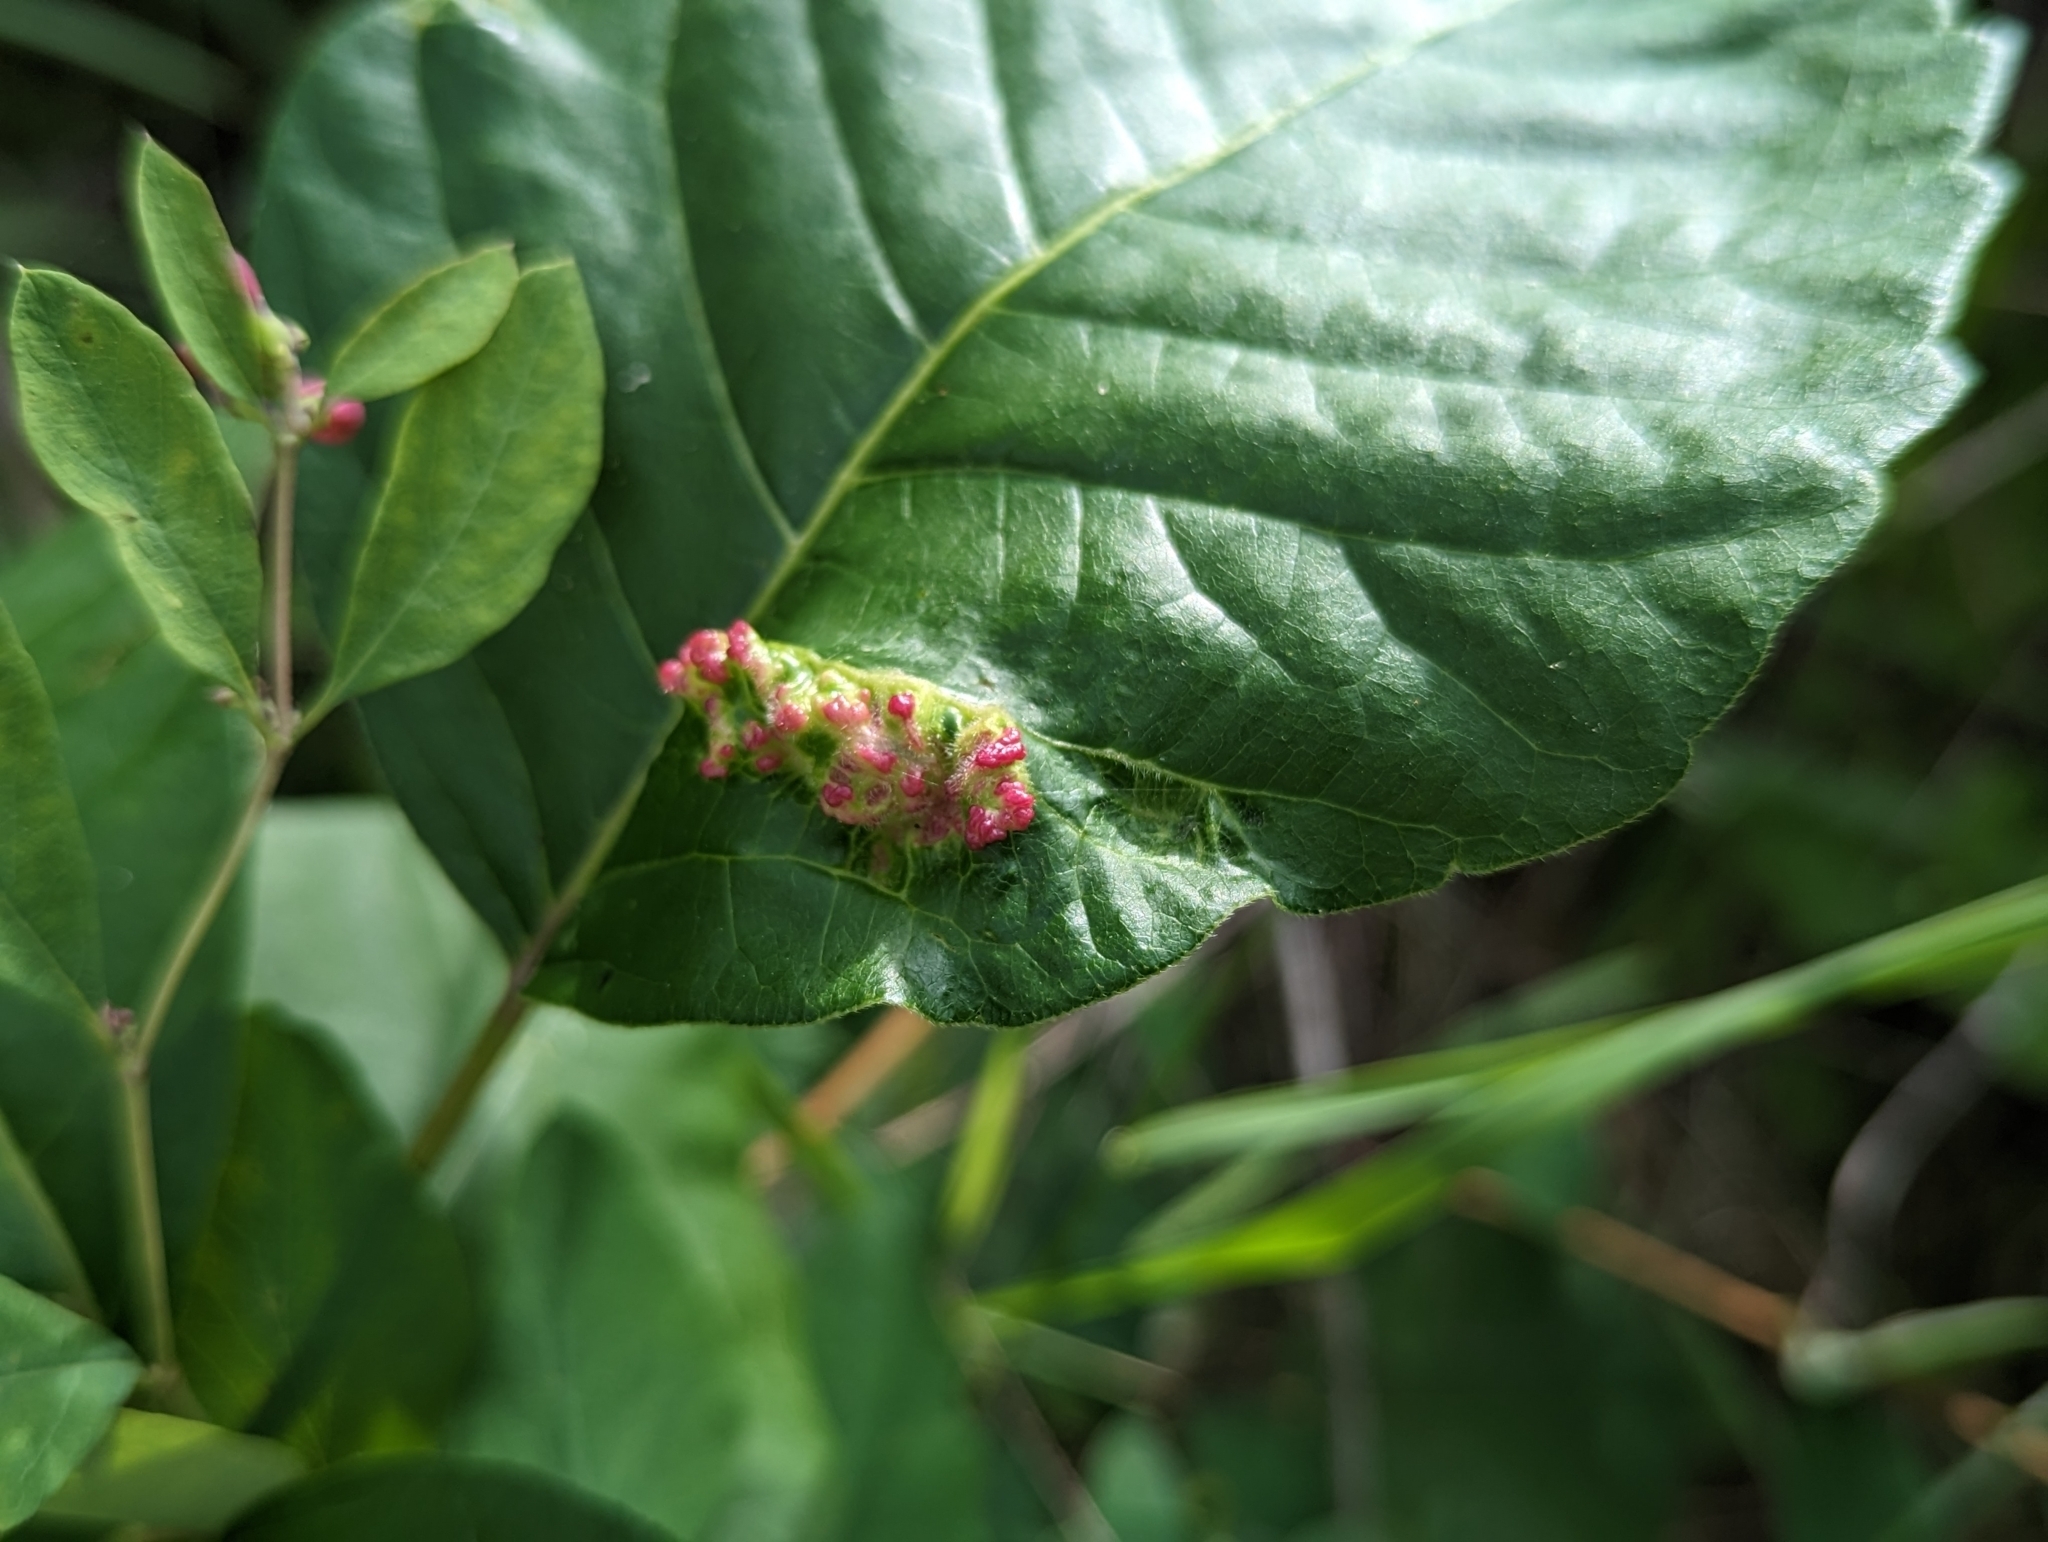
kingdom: Animalia
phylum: Arthropoda
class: Arachnida
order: Trombidiformes
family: Eriophyidae
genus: Aculops
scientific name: Aculops
